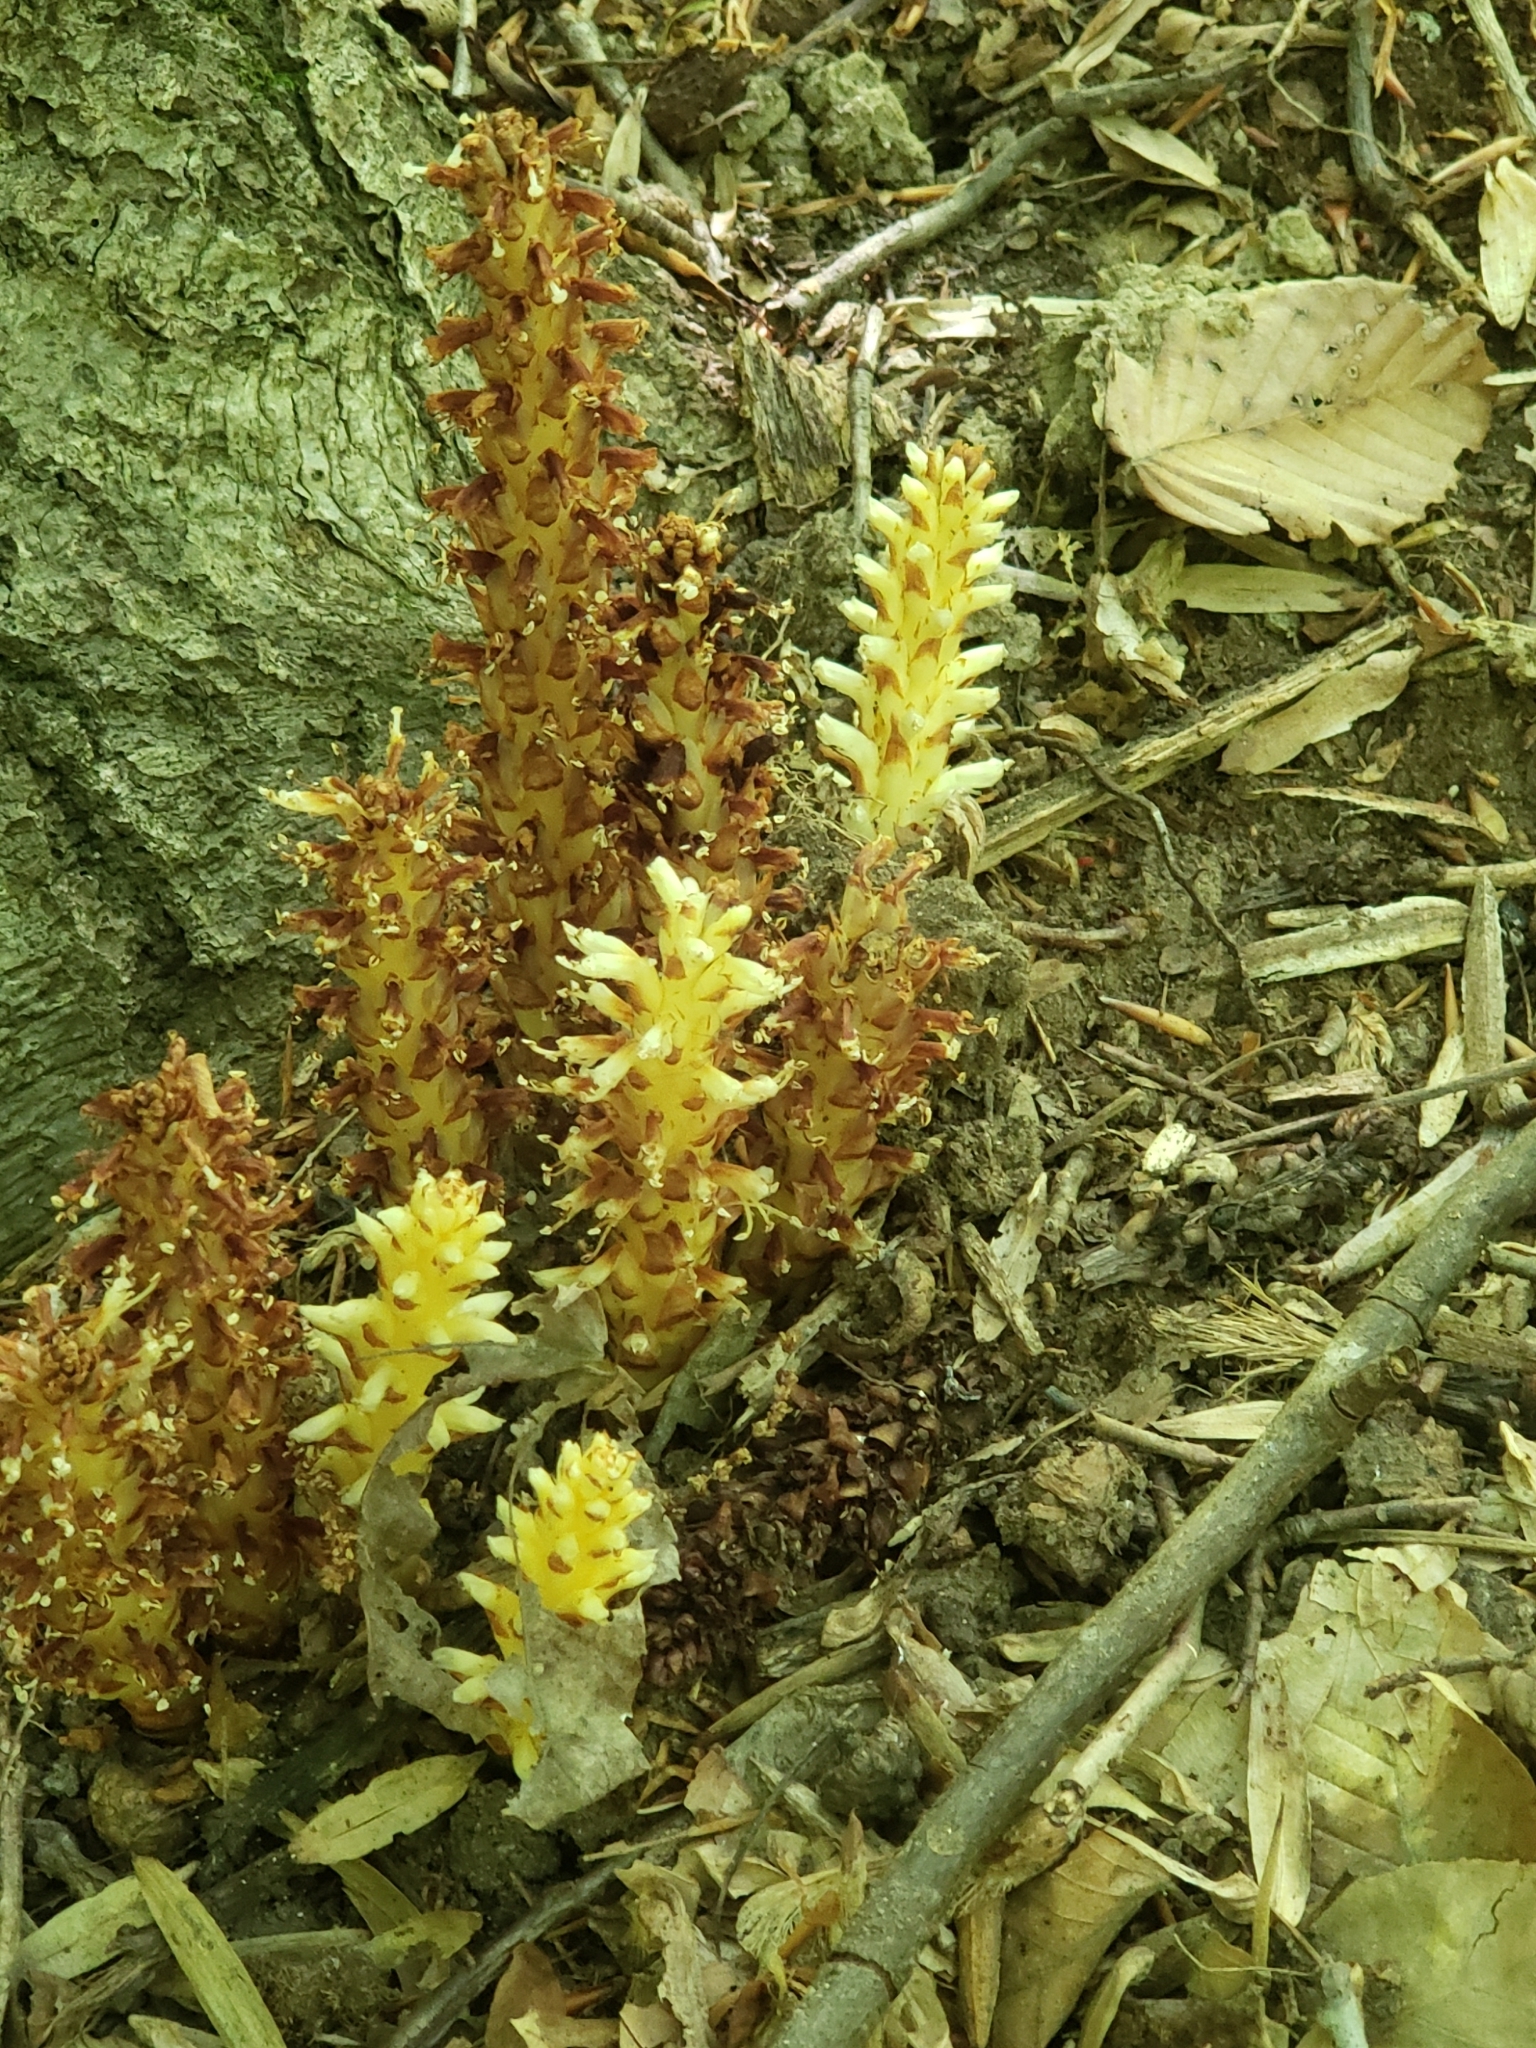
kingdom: Plantae
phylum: Tracheophyta
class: Magnoliopsida
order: Lamiales
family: Orobanchaceae
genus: Conopholis
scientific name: Conopholis americana
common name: American cancer-root
